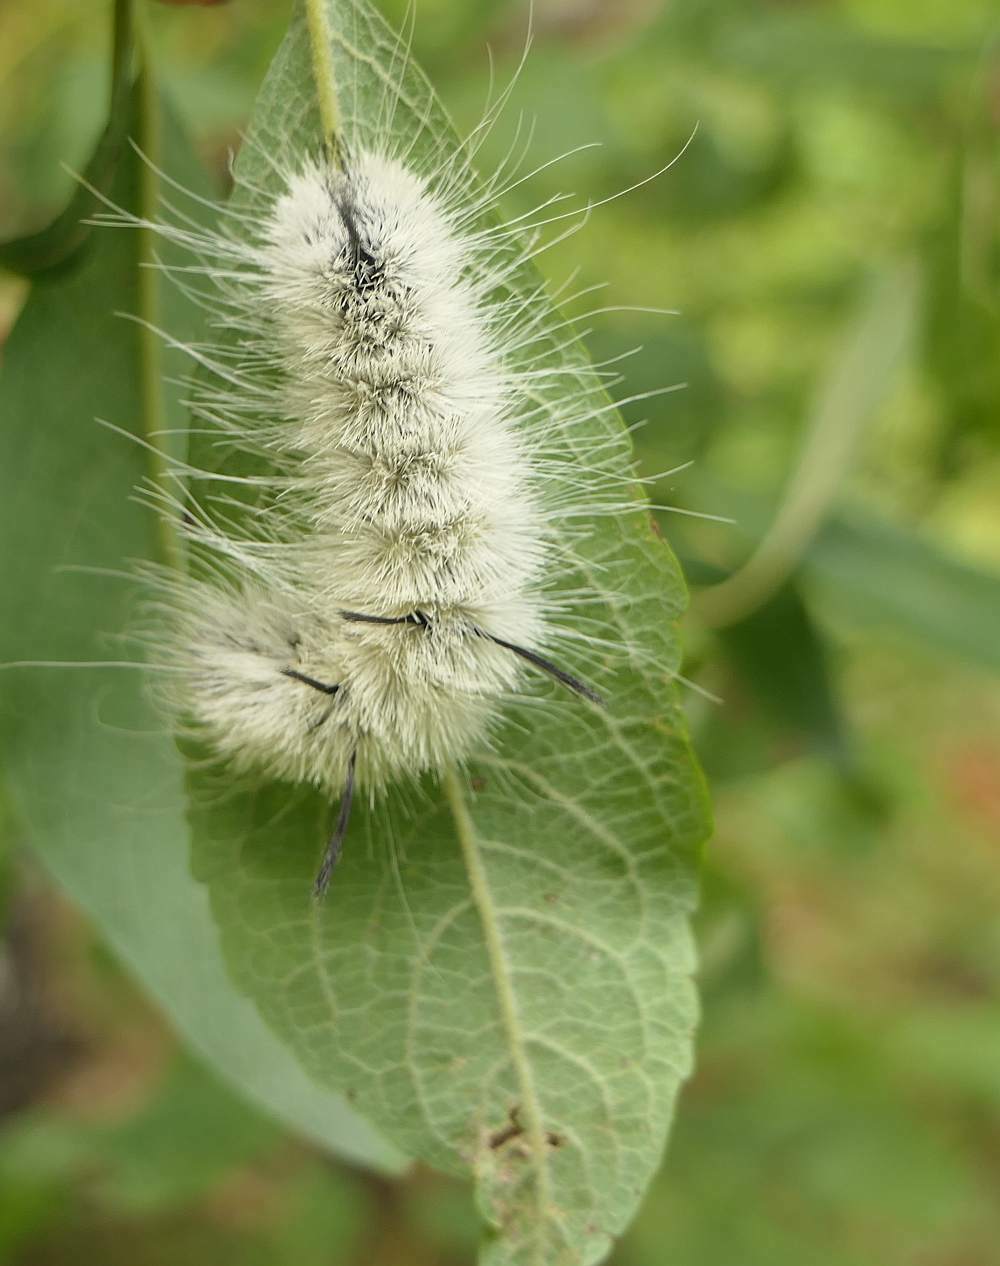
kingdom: Animalia
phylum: Arthropoda
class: Insecta
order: Lepidoptera
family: Noctuidae
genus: Acronicta
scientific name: Acronicta americana
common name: American dagger
